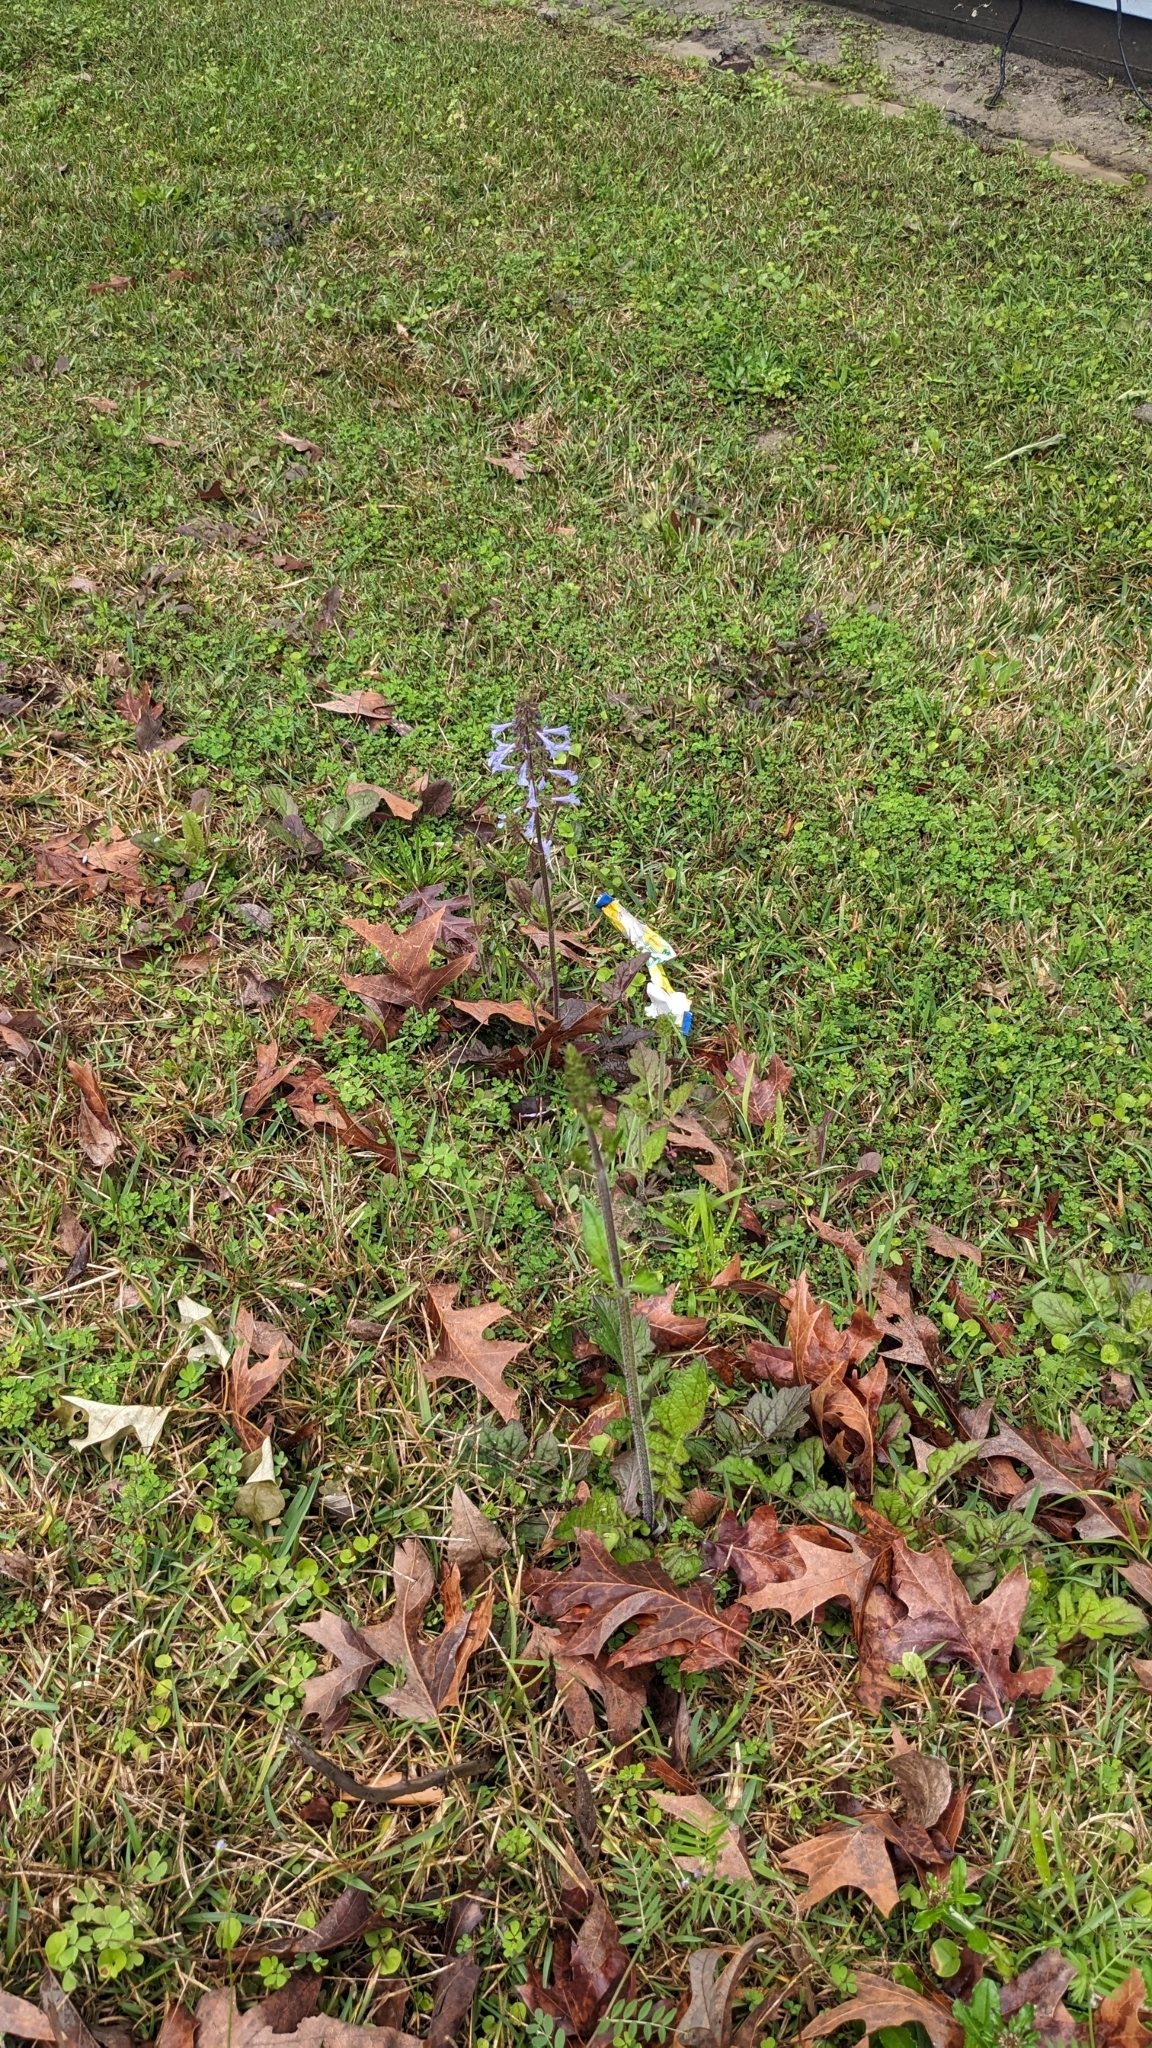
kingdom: Plantae
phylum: Tracheophyta
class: Magnoliopsida
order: Lamiales
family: Lamiaceae
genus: Salvia
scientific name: Salvia lyrata
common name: Cancerweed
